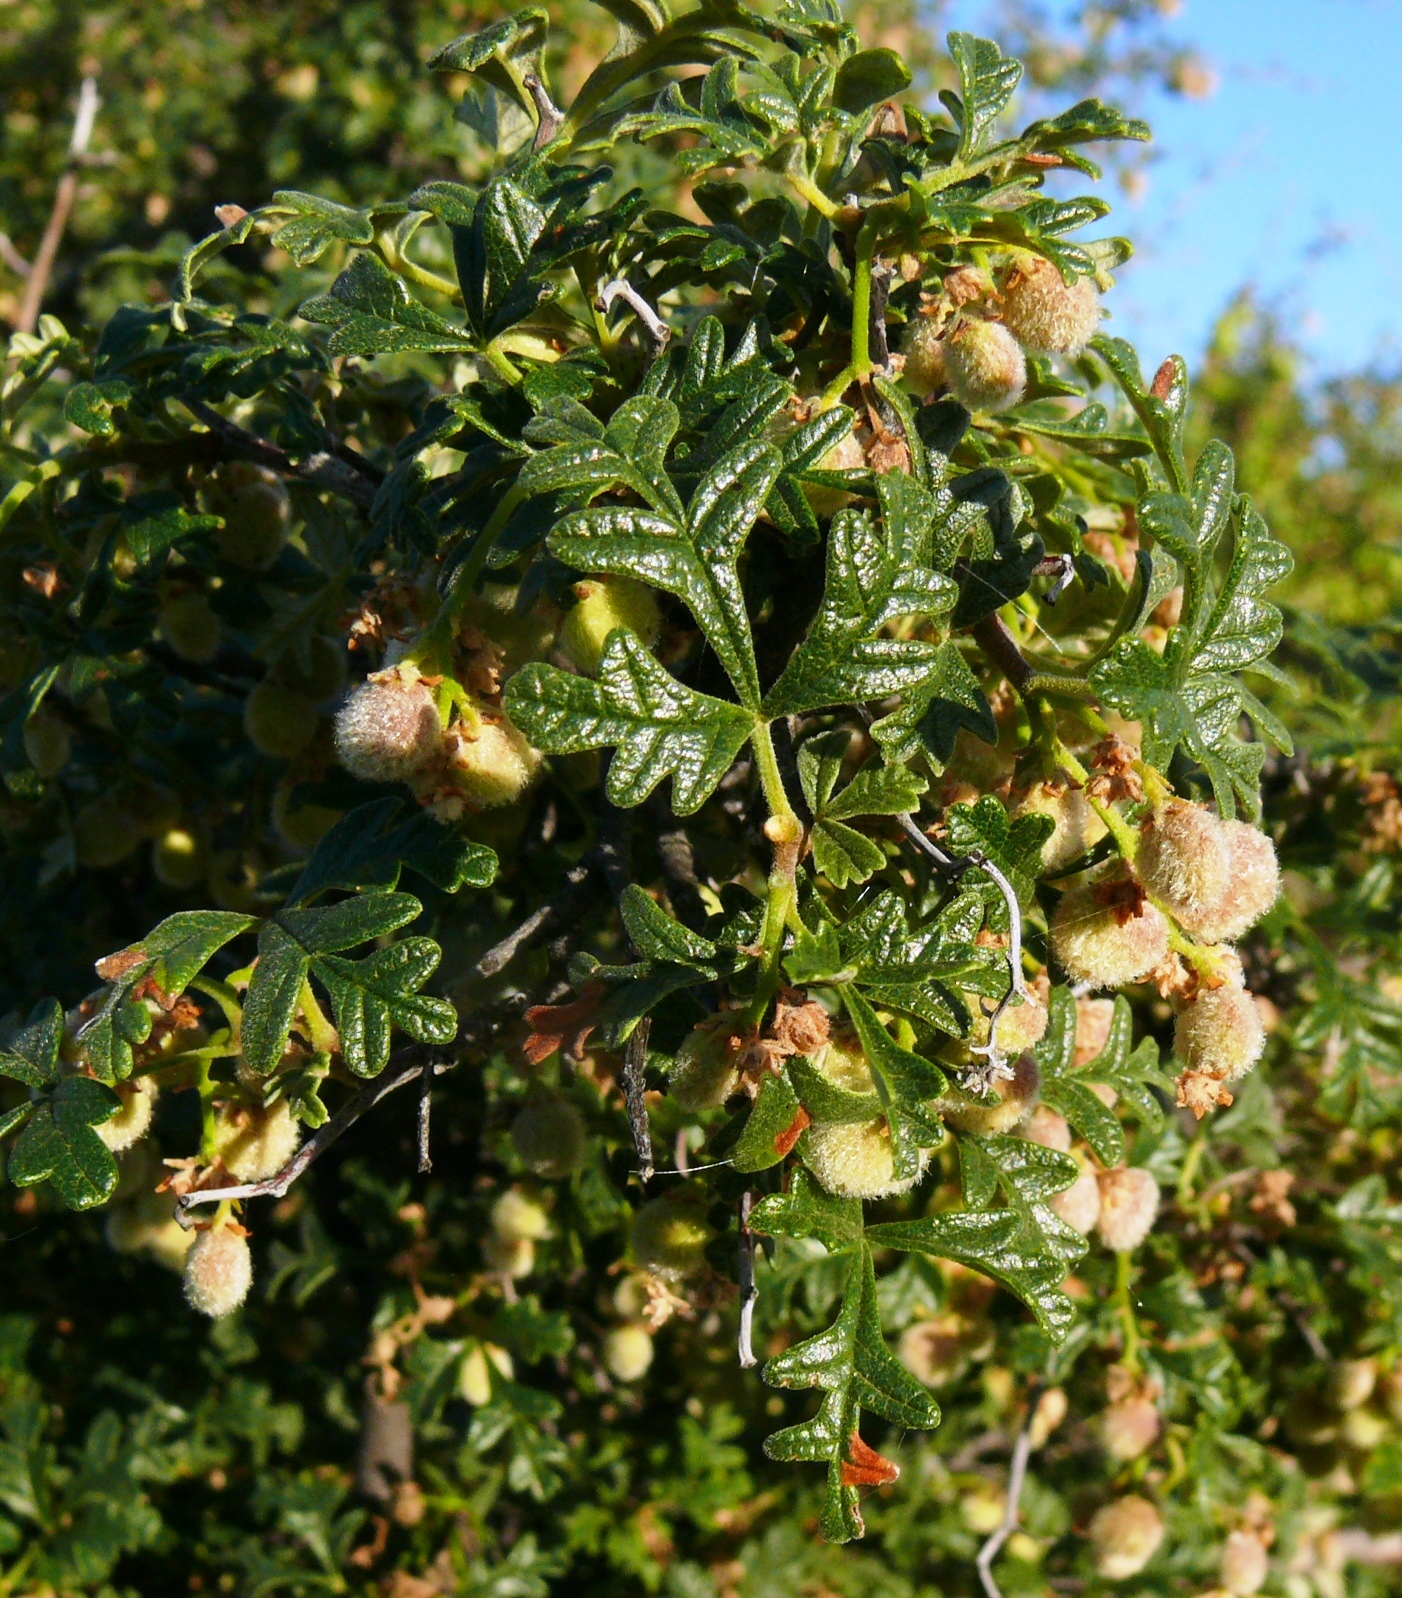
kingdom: Plantae
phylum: Tracheophyta
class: Magnoliopsida
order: Sapindales
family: Anacardiaceae
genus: Searsia
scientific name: Searsia incisa
